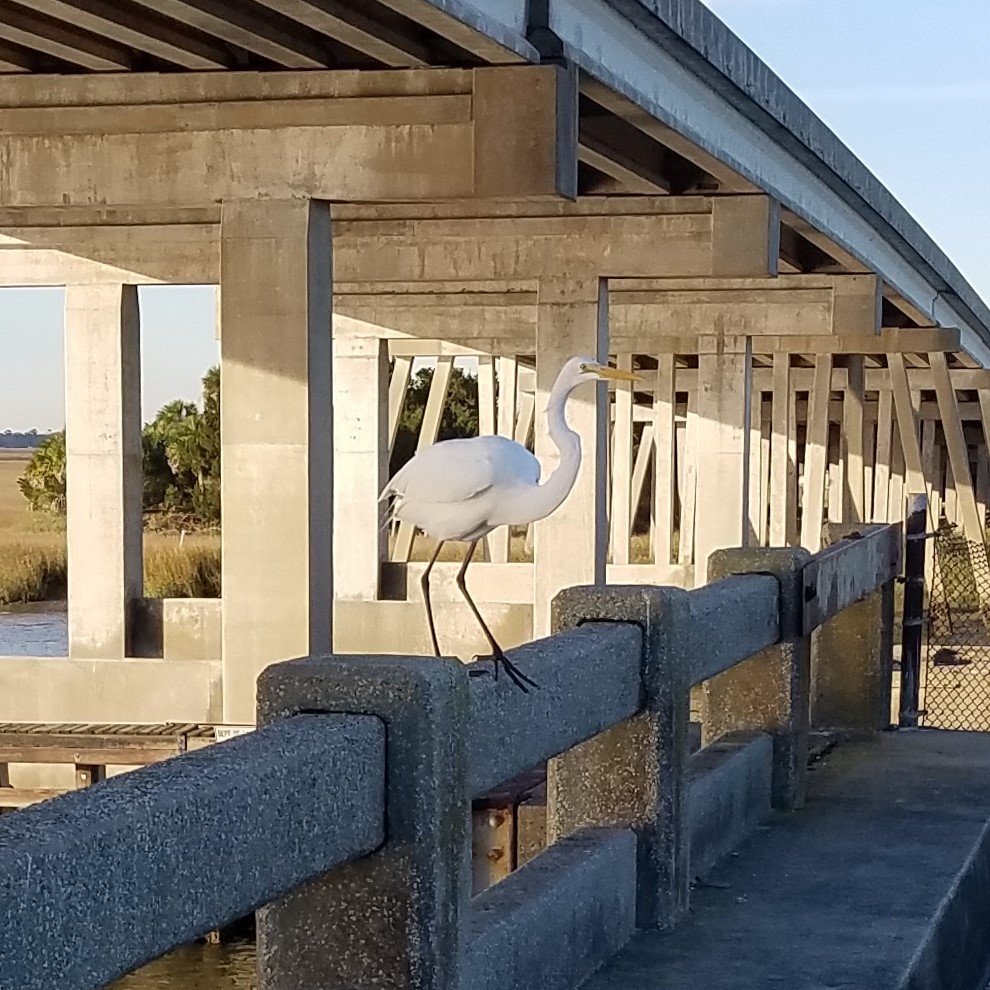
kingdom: Animalia
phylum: Chordata
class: Aves
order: Pelecaniformes
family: Ardeidae
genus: Ardea
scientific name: Ardea alba
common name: Great egret
